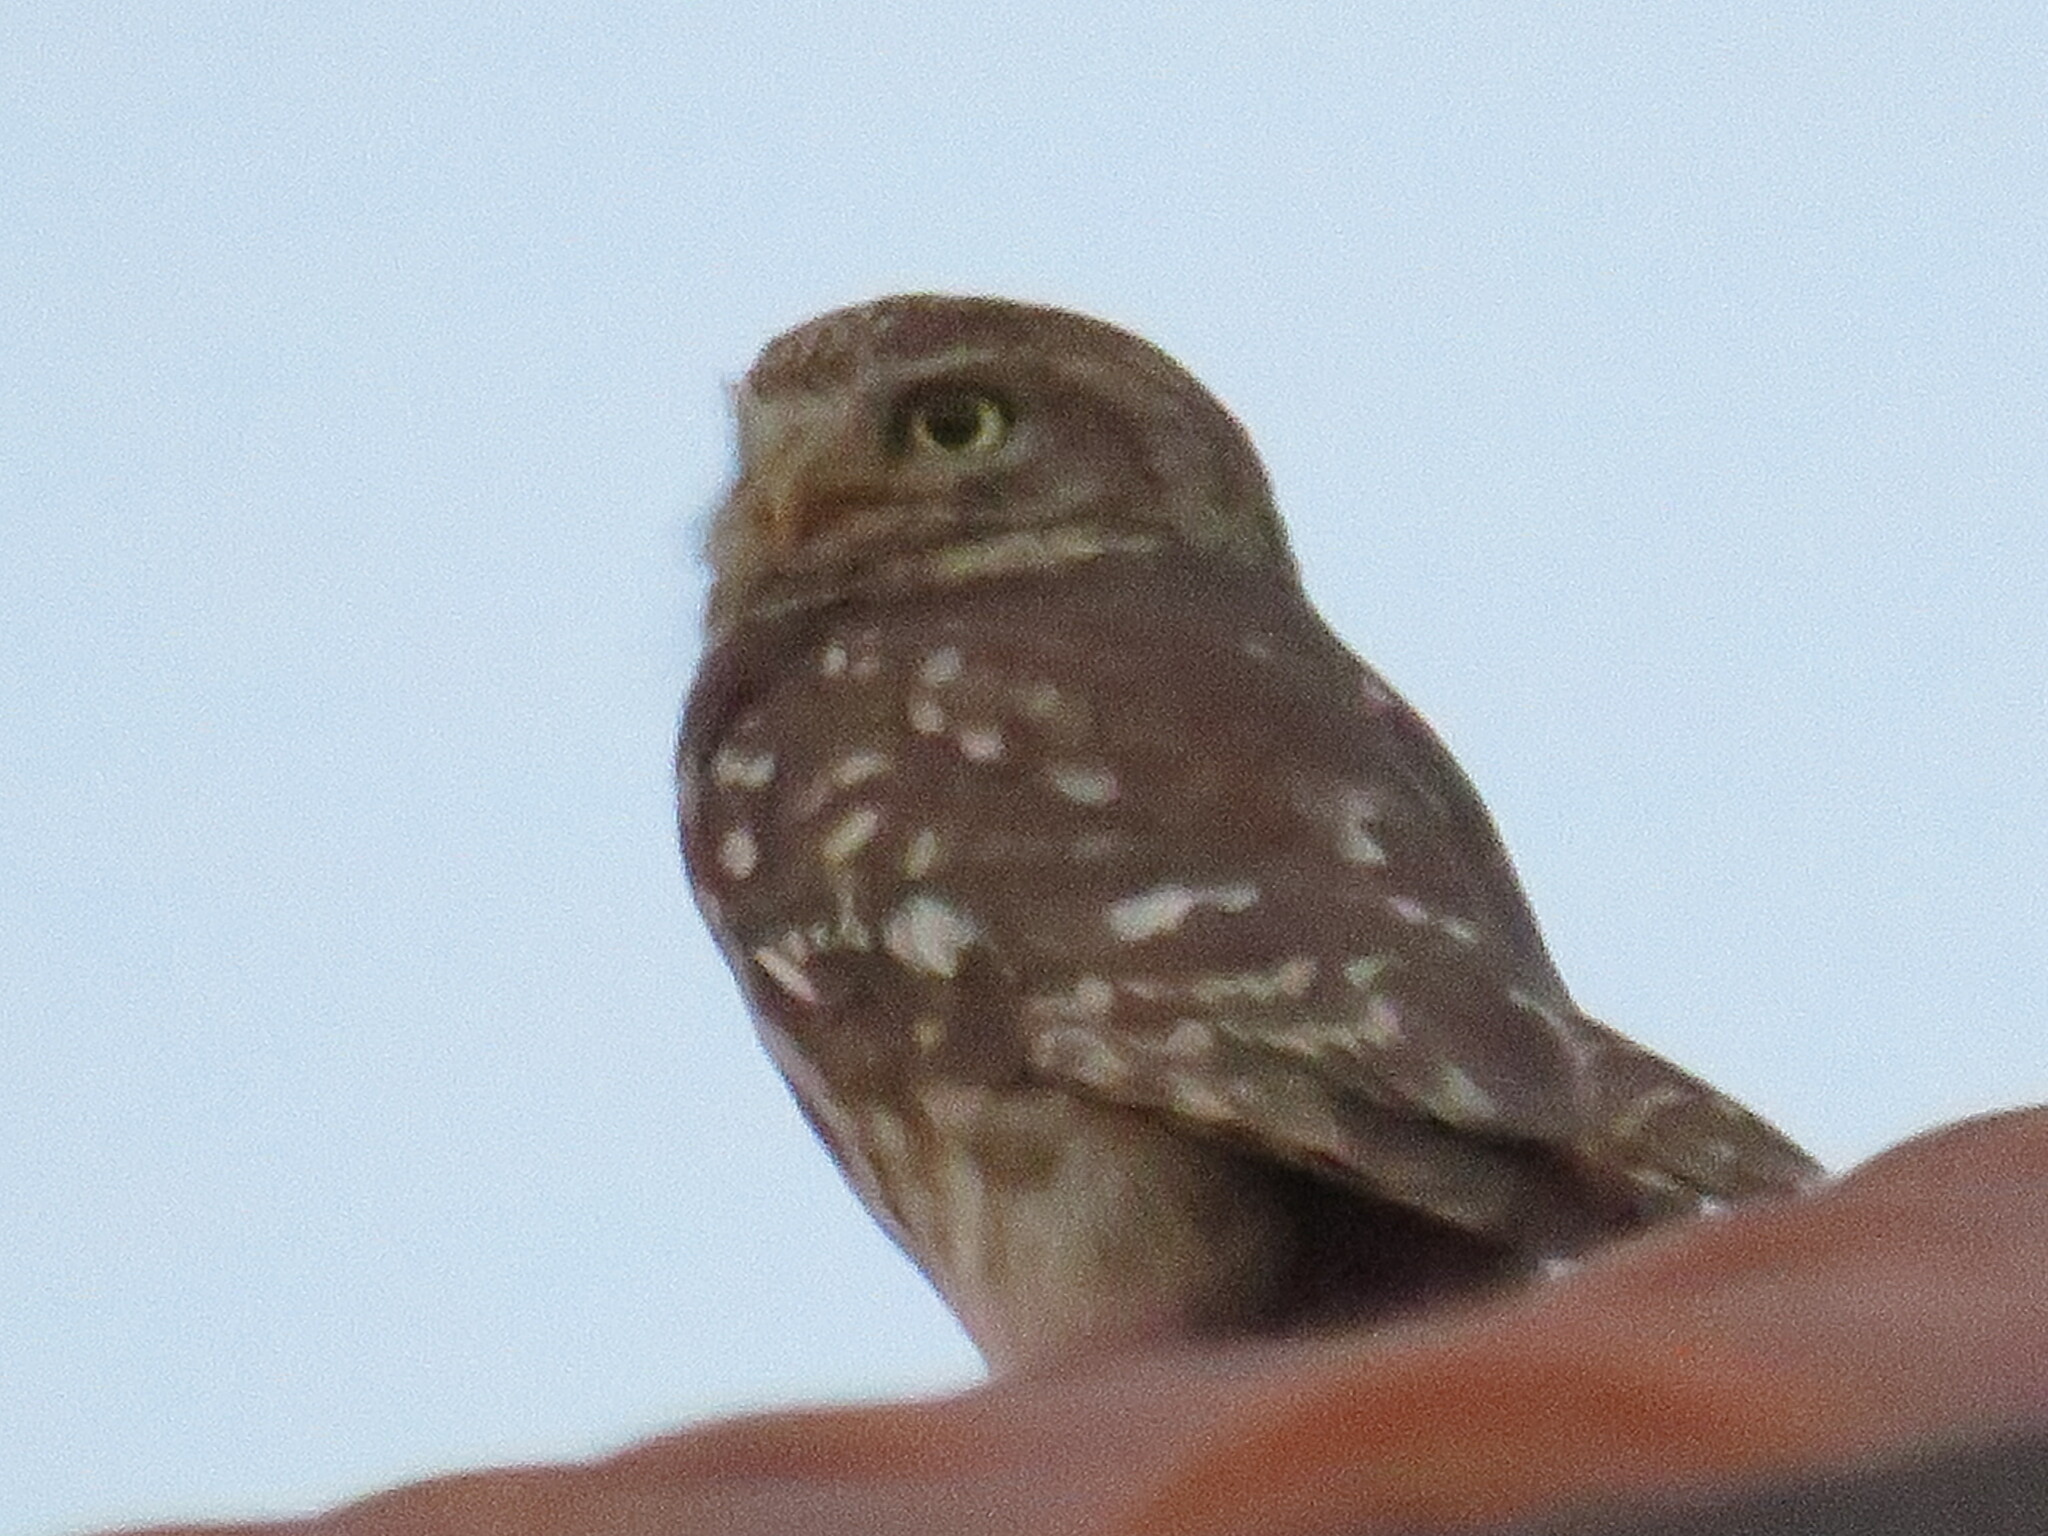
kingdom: Animalia
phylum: Chordata
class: Aves
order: Strigiformes
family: Strigidae
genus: Athene
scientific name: Athene noctua
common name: Little owl
